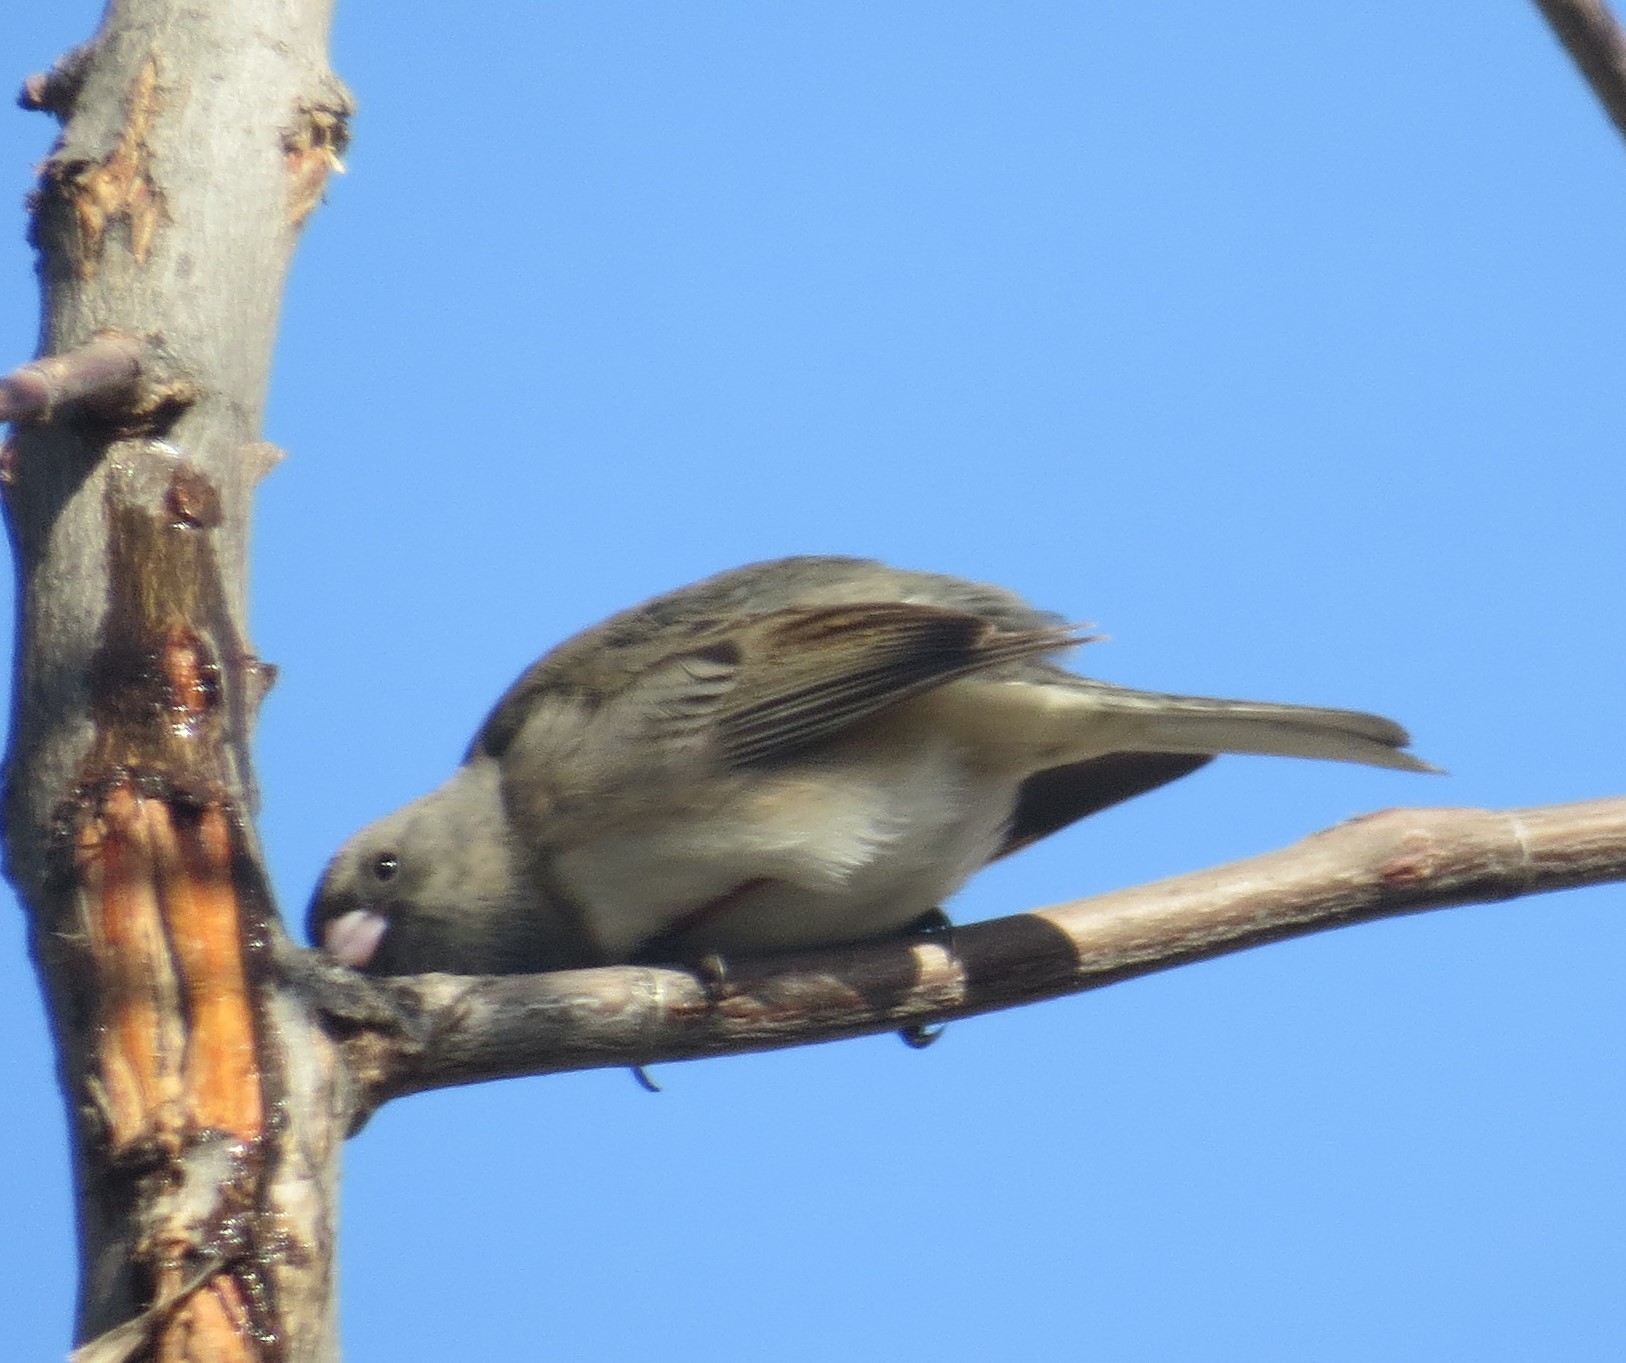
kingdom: Animalia
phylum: Chordata
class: Aves
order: Passeriformes
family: Passerellidae
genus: Junco
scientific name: Junco hyemalis
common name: Dark-eyed junco
